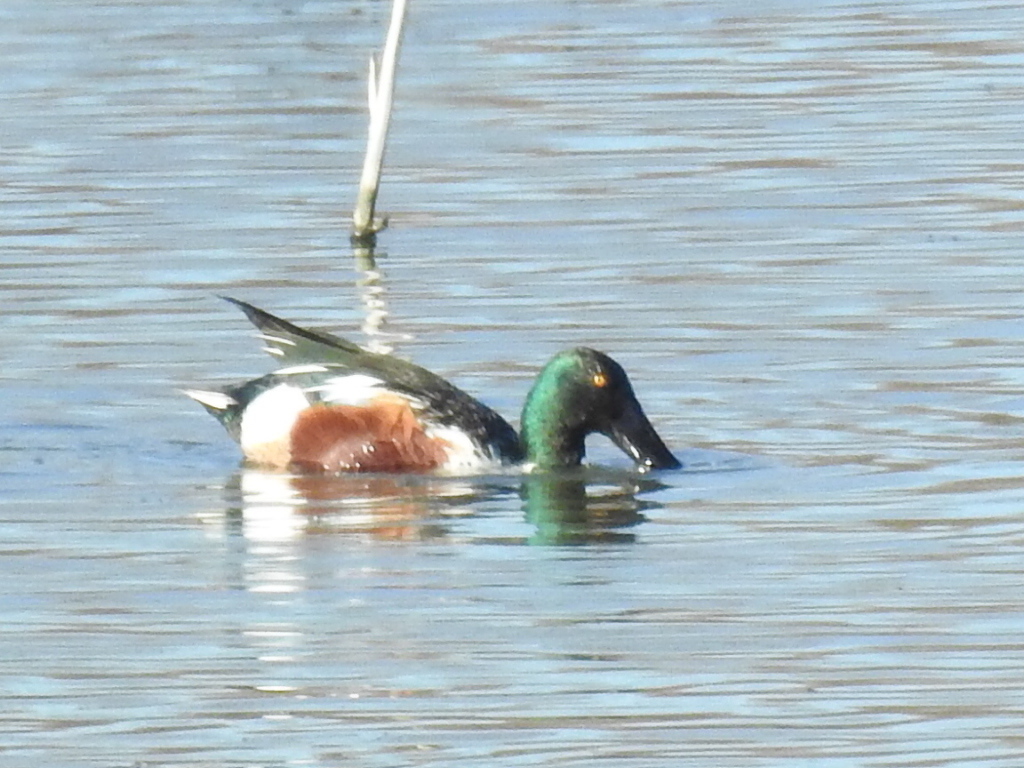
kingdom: Animalia
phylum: Chordata
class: Aves
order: Anseriformes
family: Anatidae
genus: Spatula
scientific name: Spatula clypeata
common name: Northern shoveler
